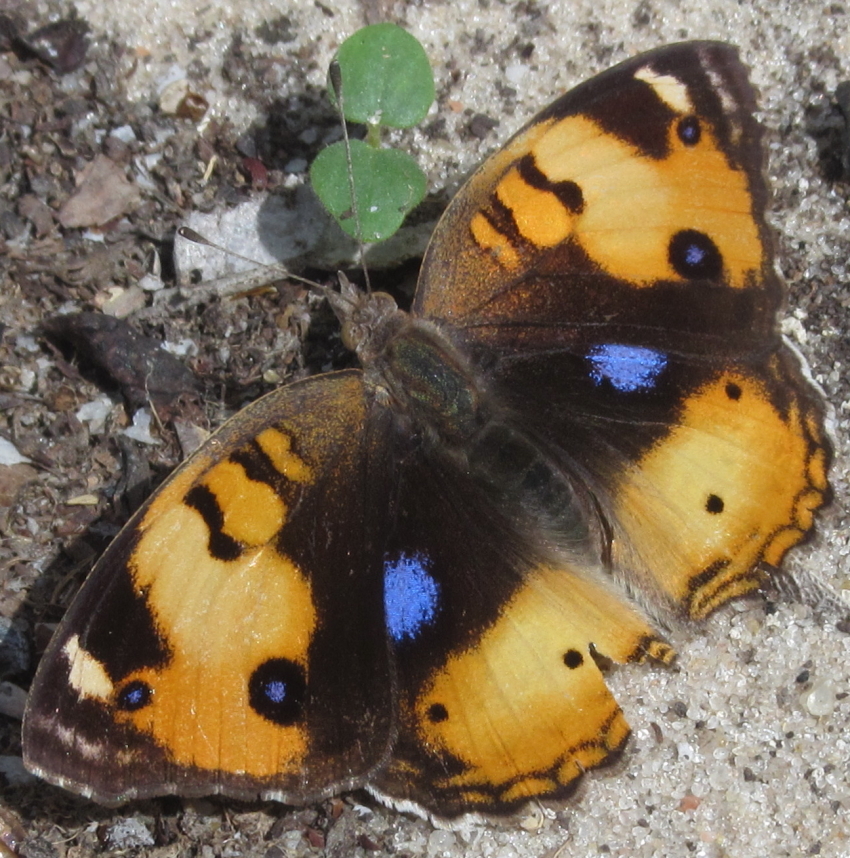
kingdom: Animalia
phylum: Arthropoda
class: Insecta
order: Lepidoptera
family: Nymphalidae
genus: Junonia
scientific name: Junonia hierta
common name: Yellow pansy
